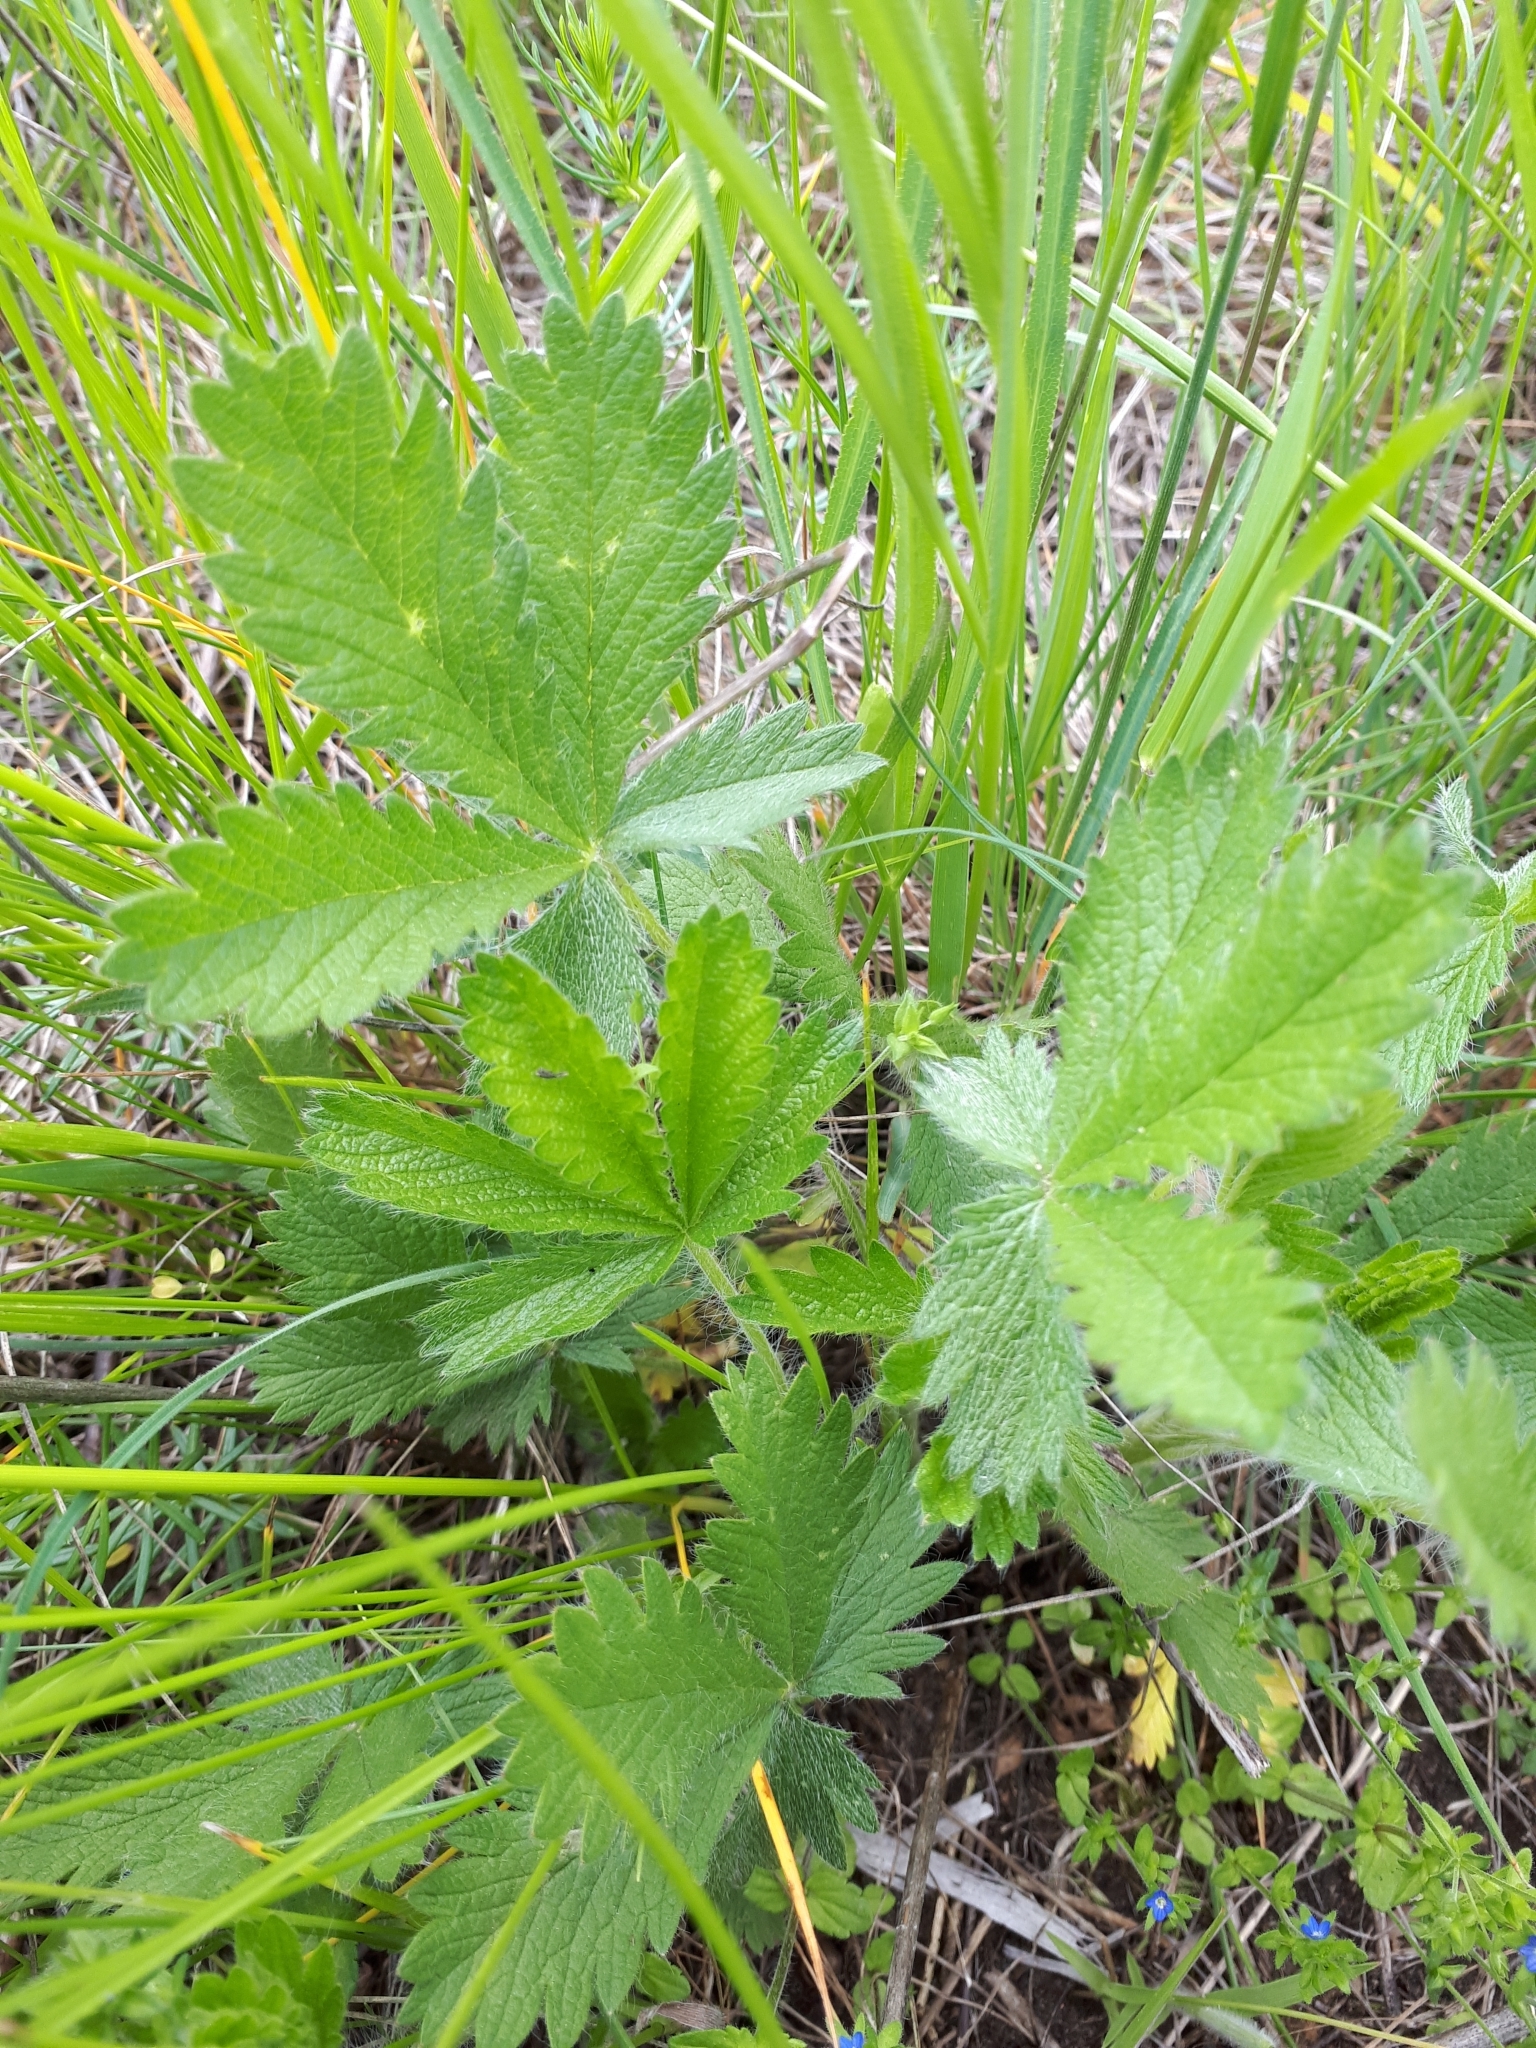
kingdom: Plantae
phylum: Tracheophyta
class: Magnoliopsida
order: Rosales
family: Rosaceae
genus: Potentilla
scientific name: Potentilla recta
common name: Sulphur cinquefoil
